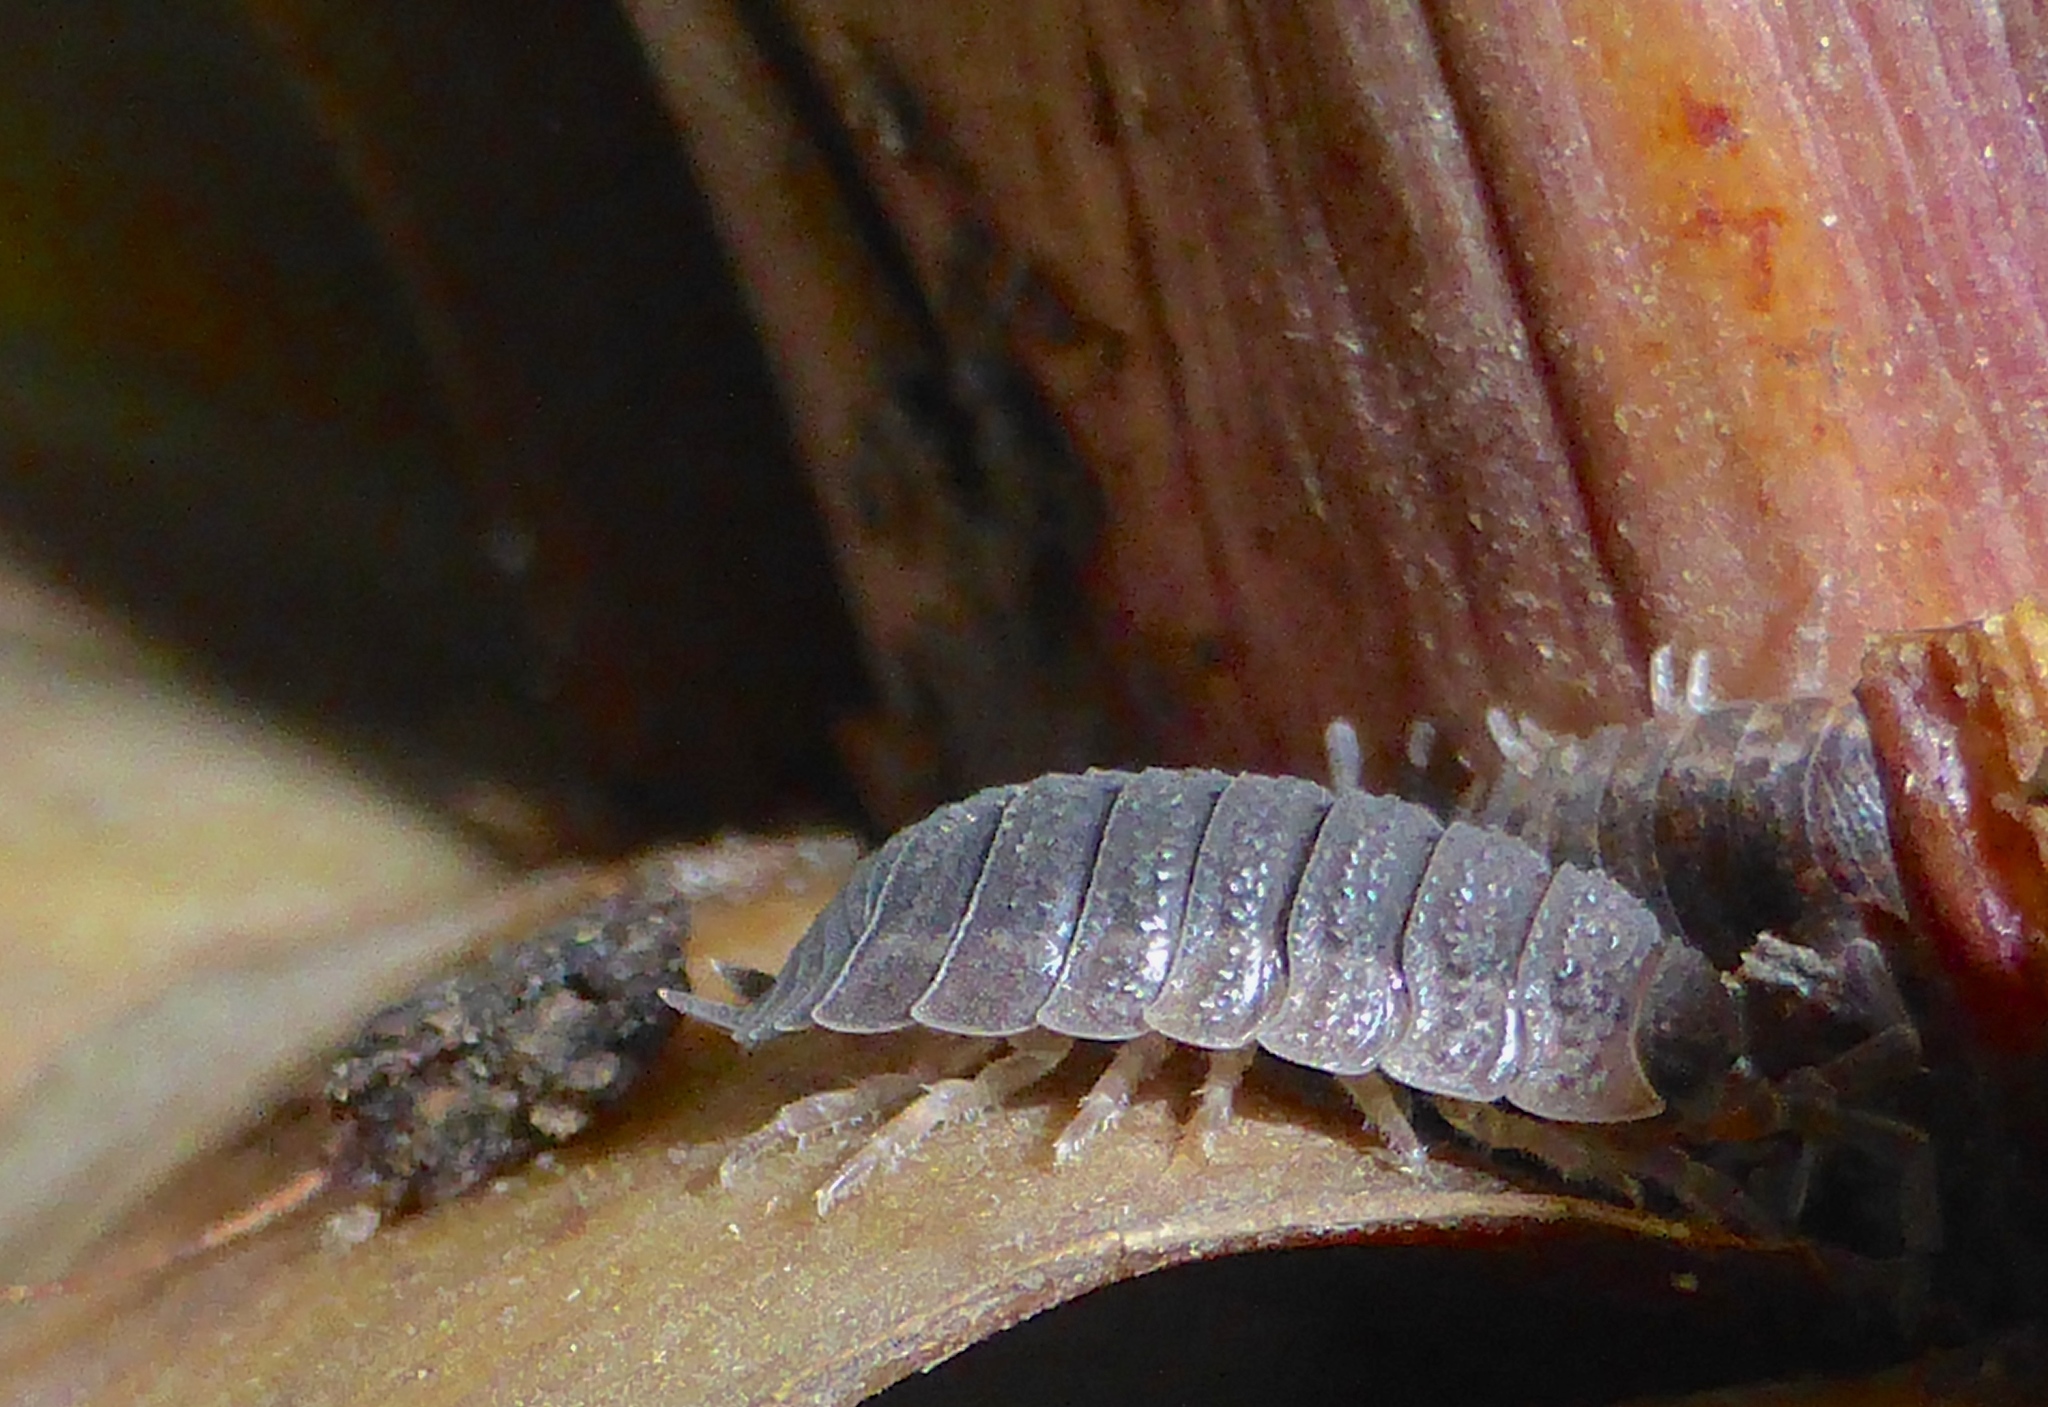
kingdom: Animalia
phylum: Arthropoda
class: Malacostraca
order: Isopoda
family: Porcellionidae
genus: Porcellio
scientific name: Porcellio scaber
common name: Common rough woodlouse
